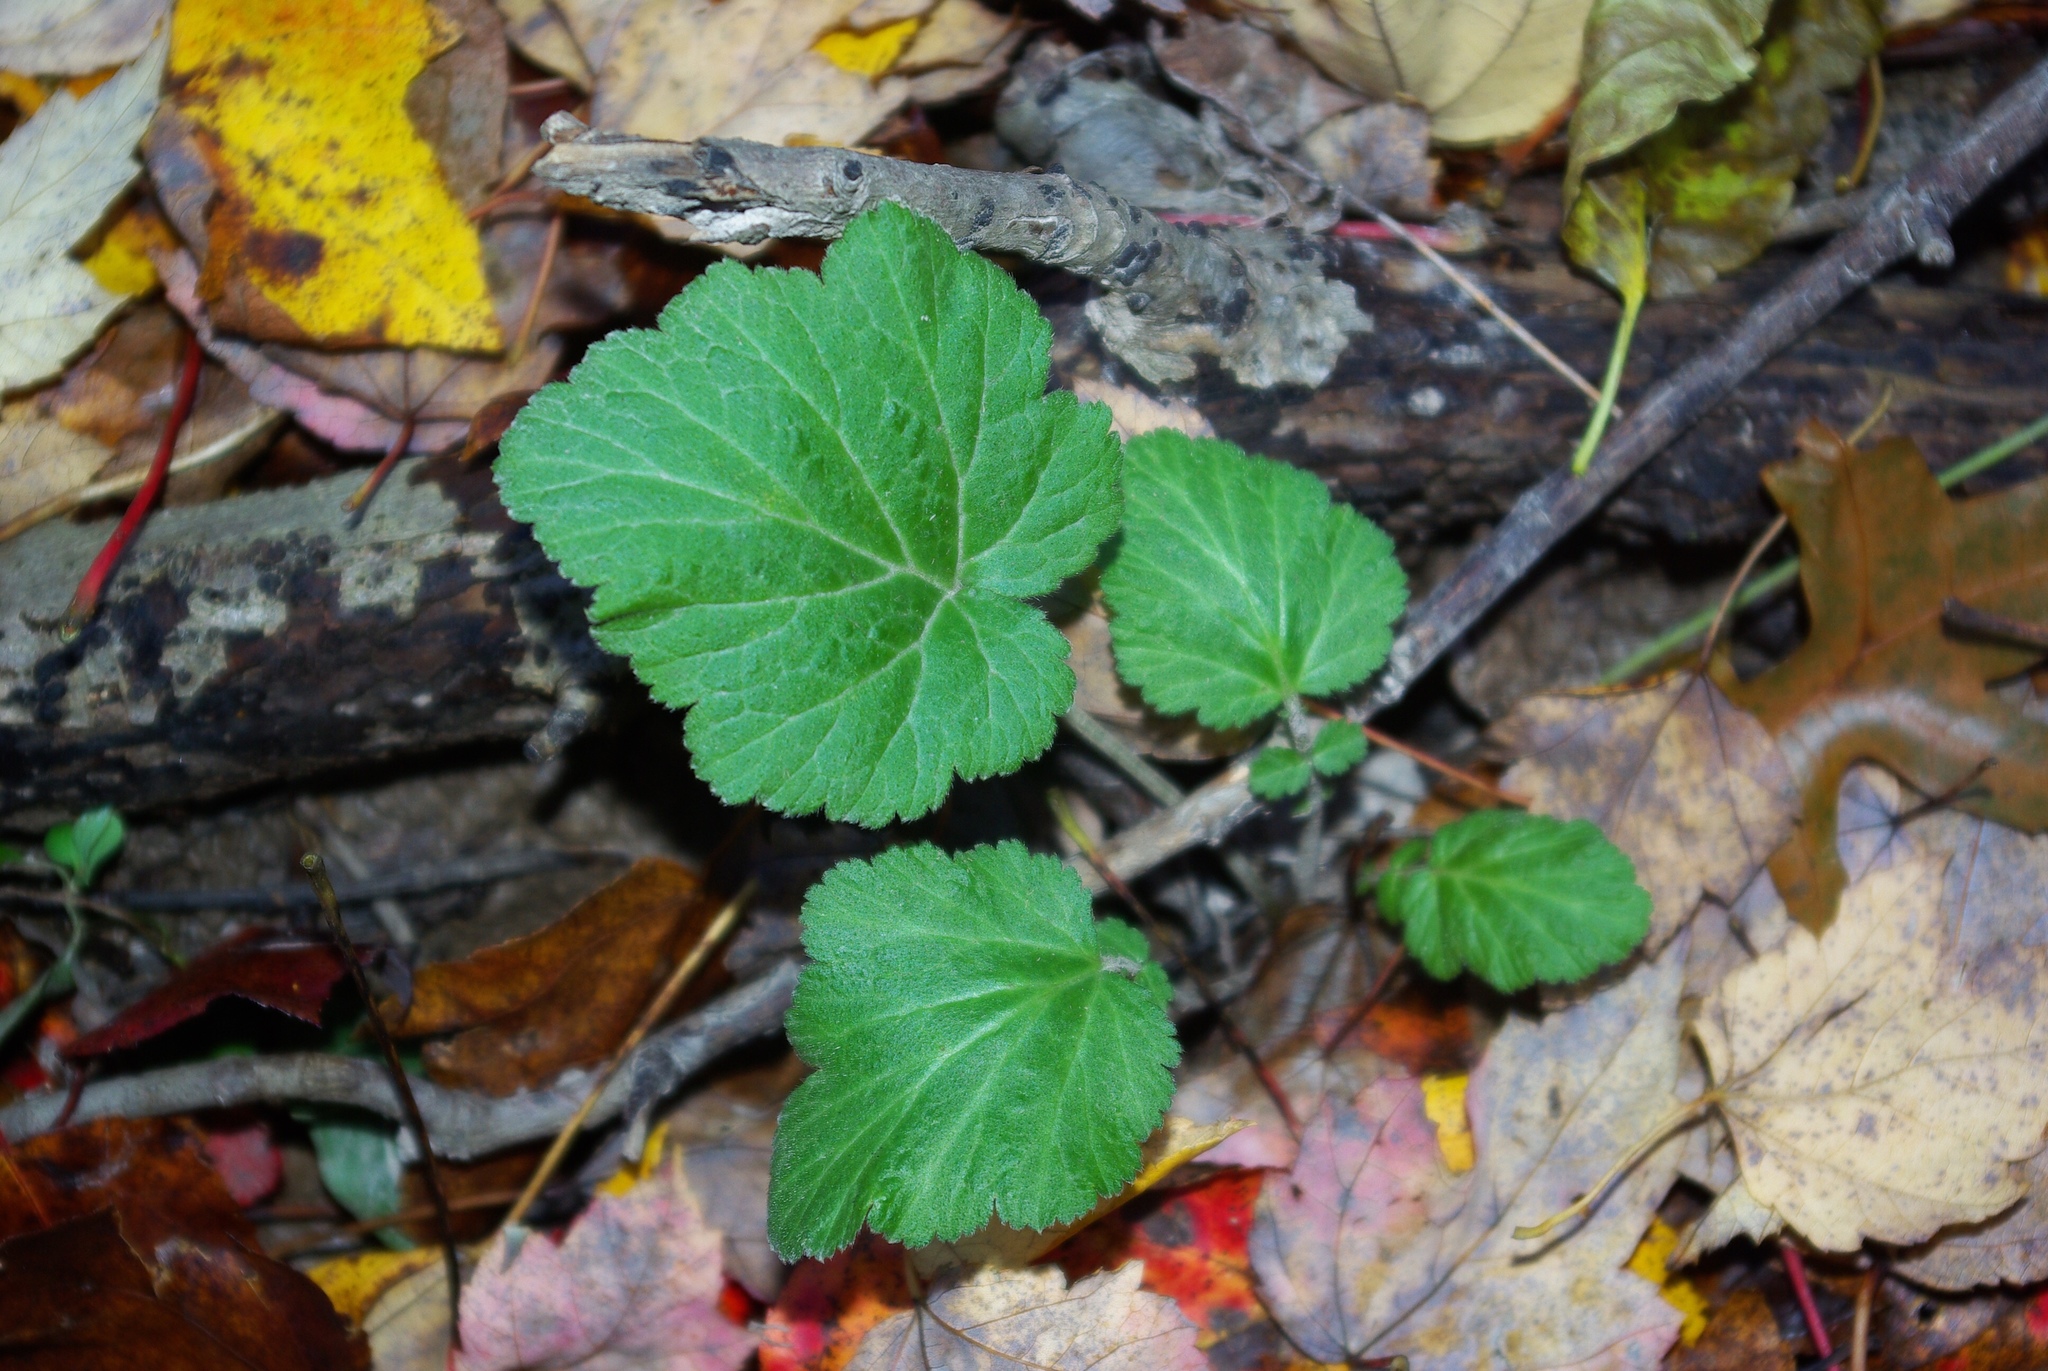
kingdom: Plantae
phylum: Tracheophyta
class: Magnoliopsida
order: Rosales
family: Rosaceae
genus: Geum
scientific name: Geum canadense
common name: White avens
